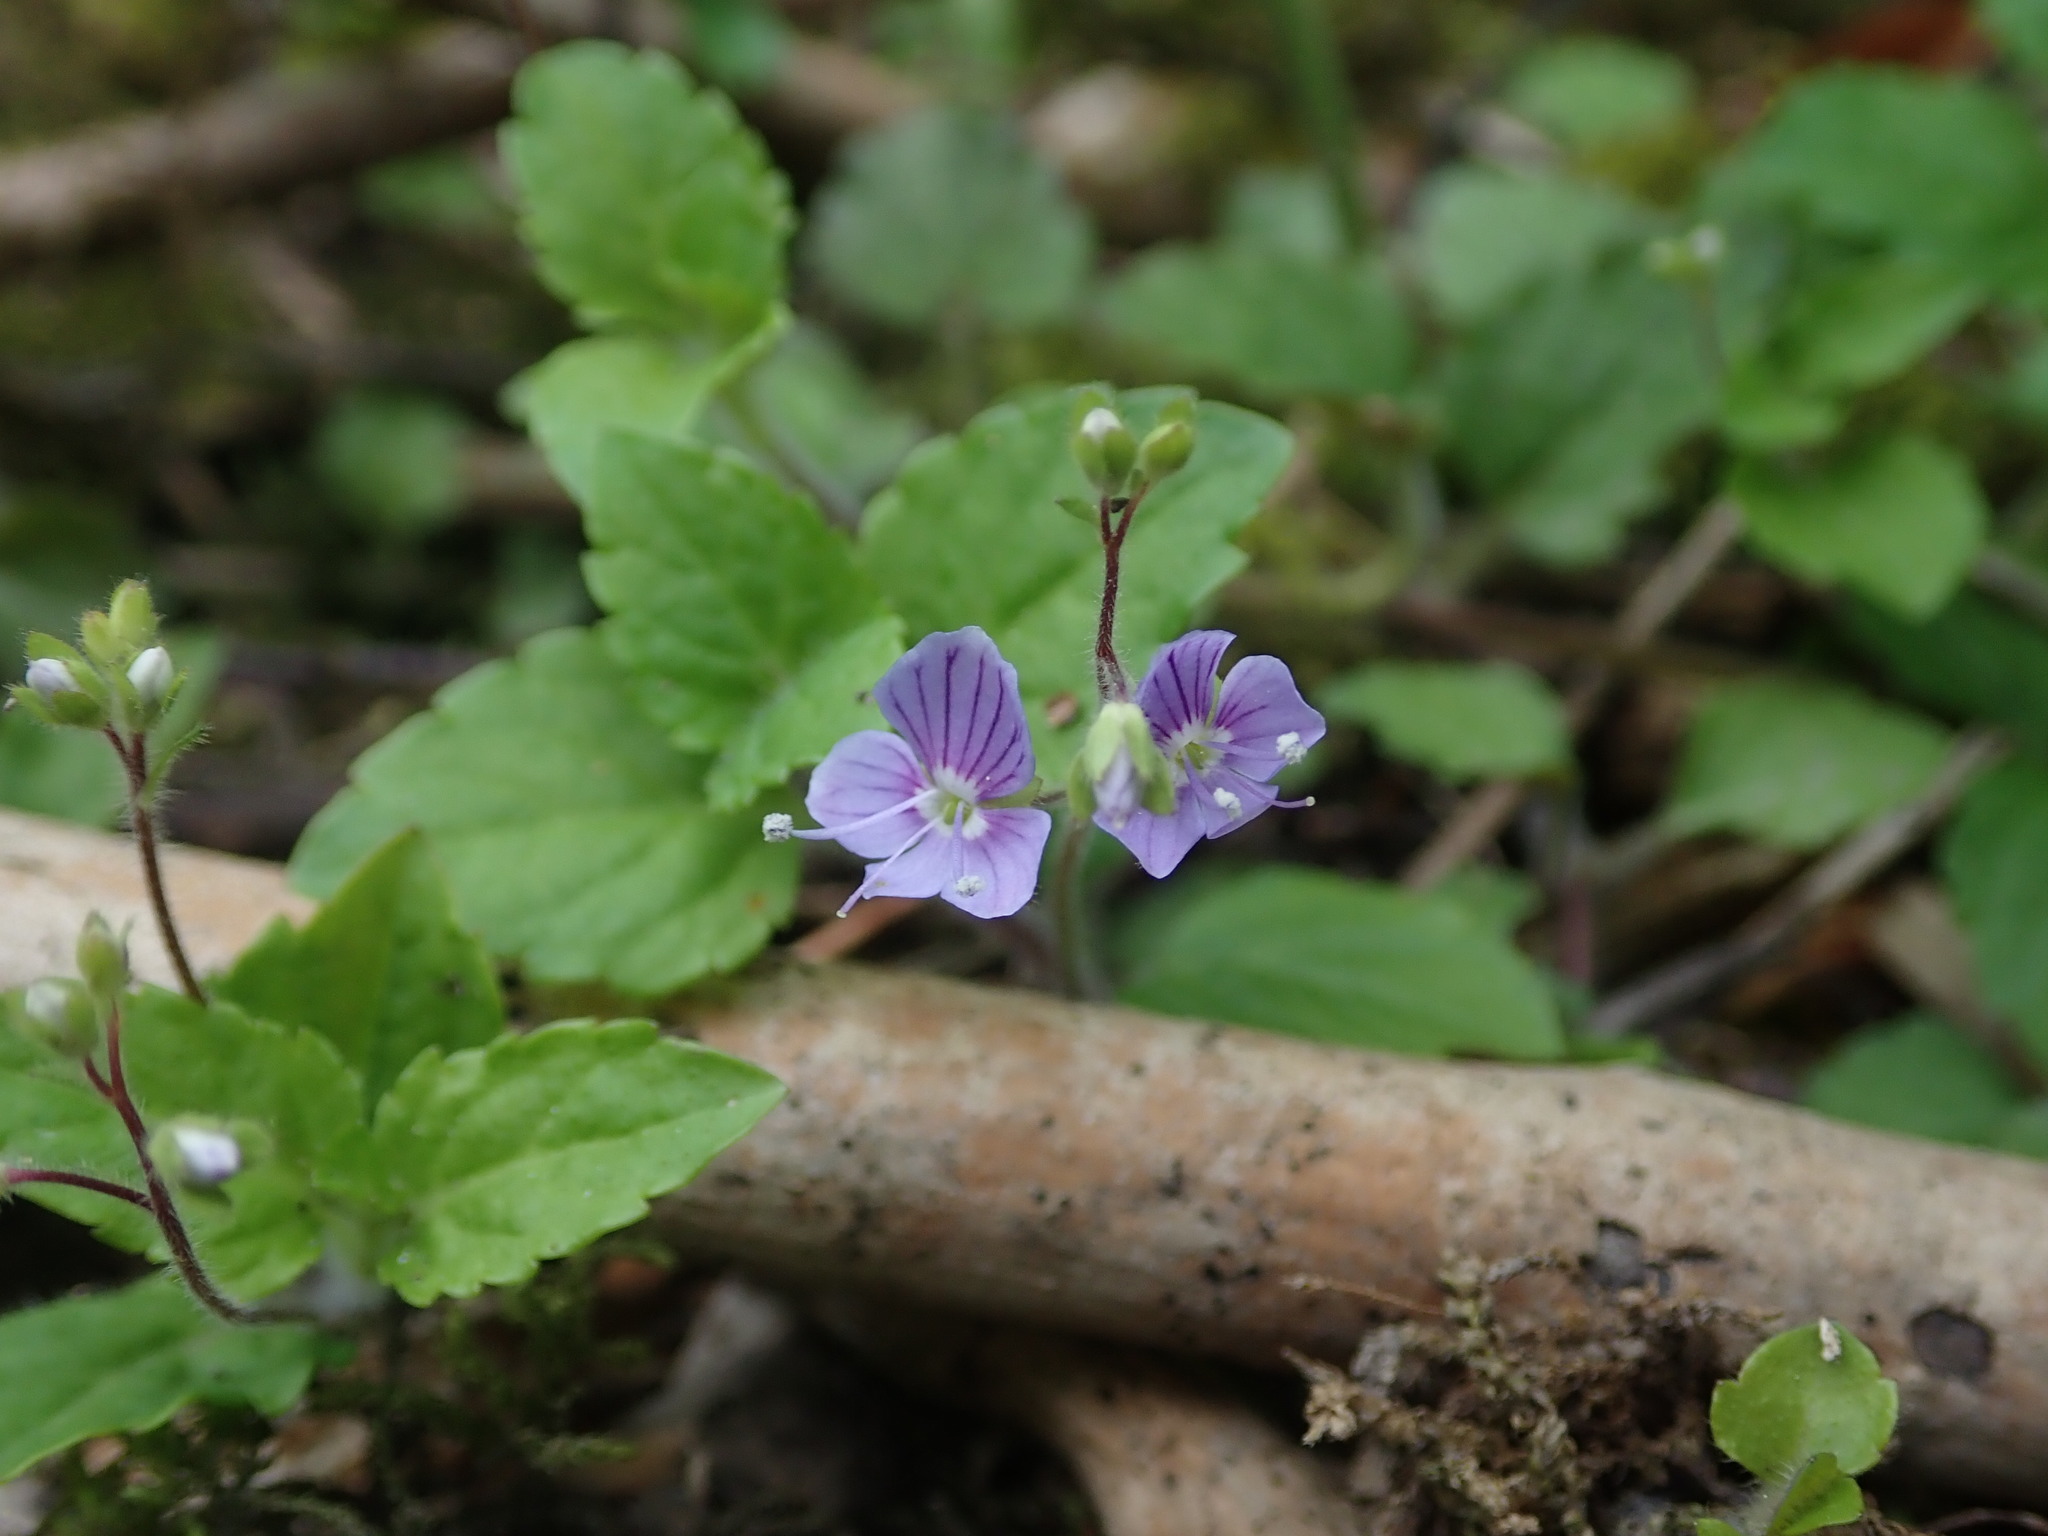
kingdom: Plantae
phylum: Tracheophyta
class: Magnoliopsida
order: Lamiales
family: Plantaginaceae
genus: Veronica
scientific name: Veronica montana
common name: Wood speedwell
